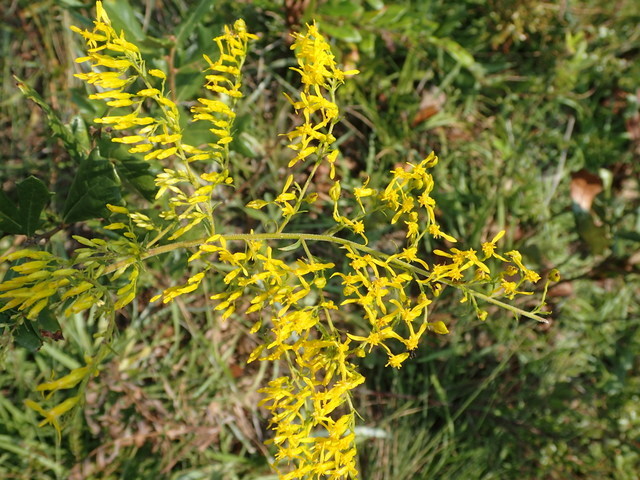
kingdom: Plantae
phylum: Tracheophyta
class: Magnoliopsida
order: Asterales
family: Asteraceae
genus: Solidago
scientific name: Solidago odora
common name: Anise-scented goldenrod
